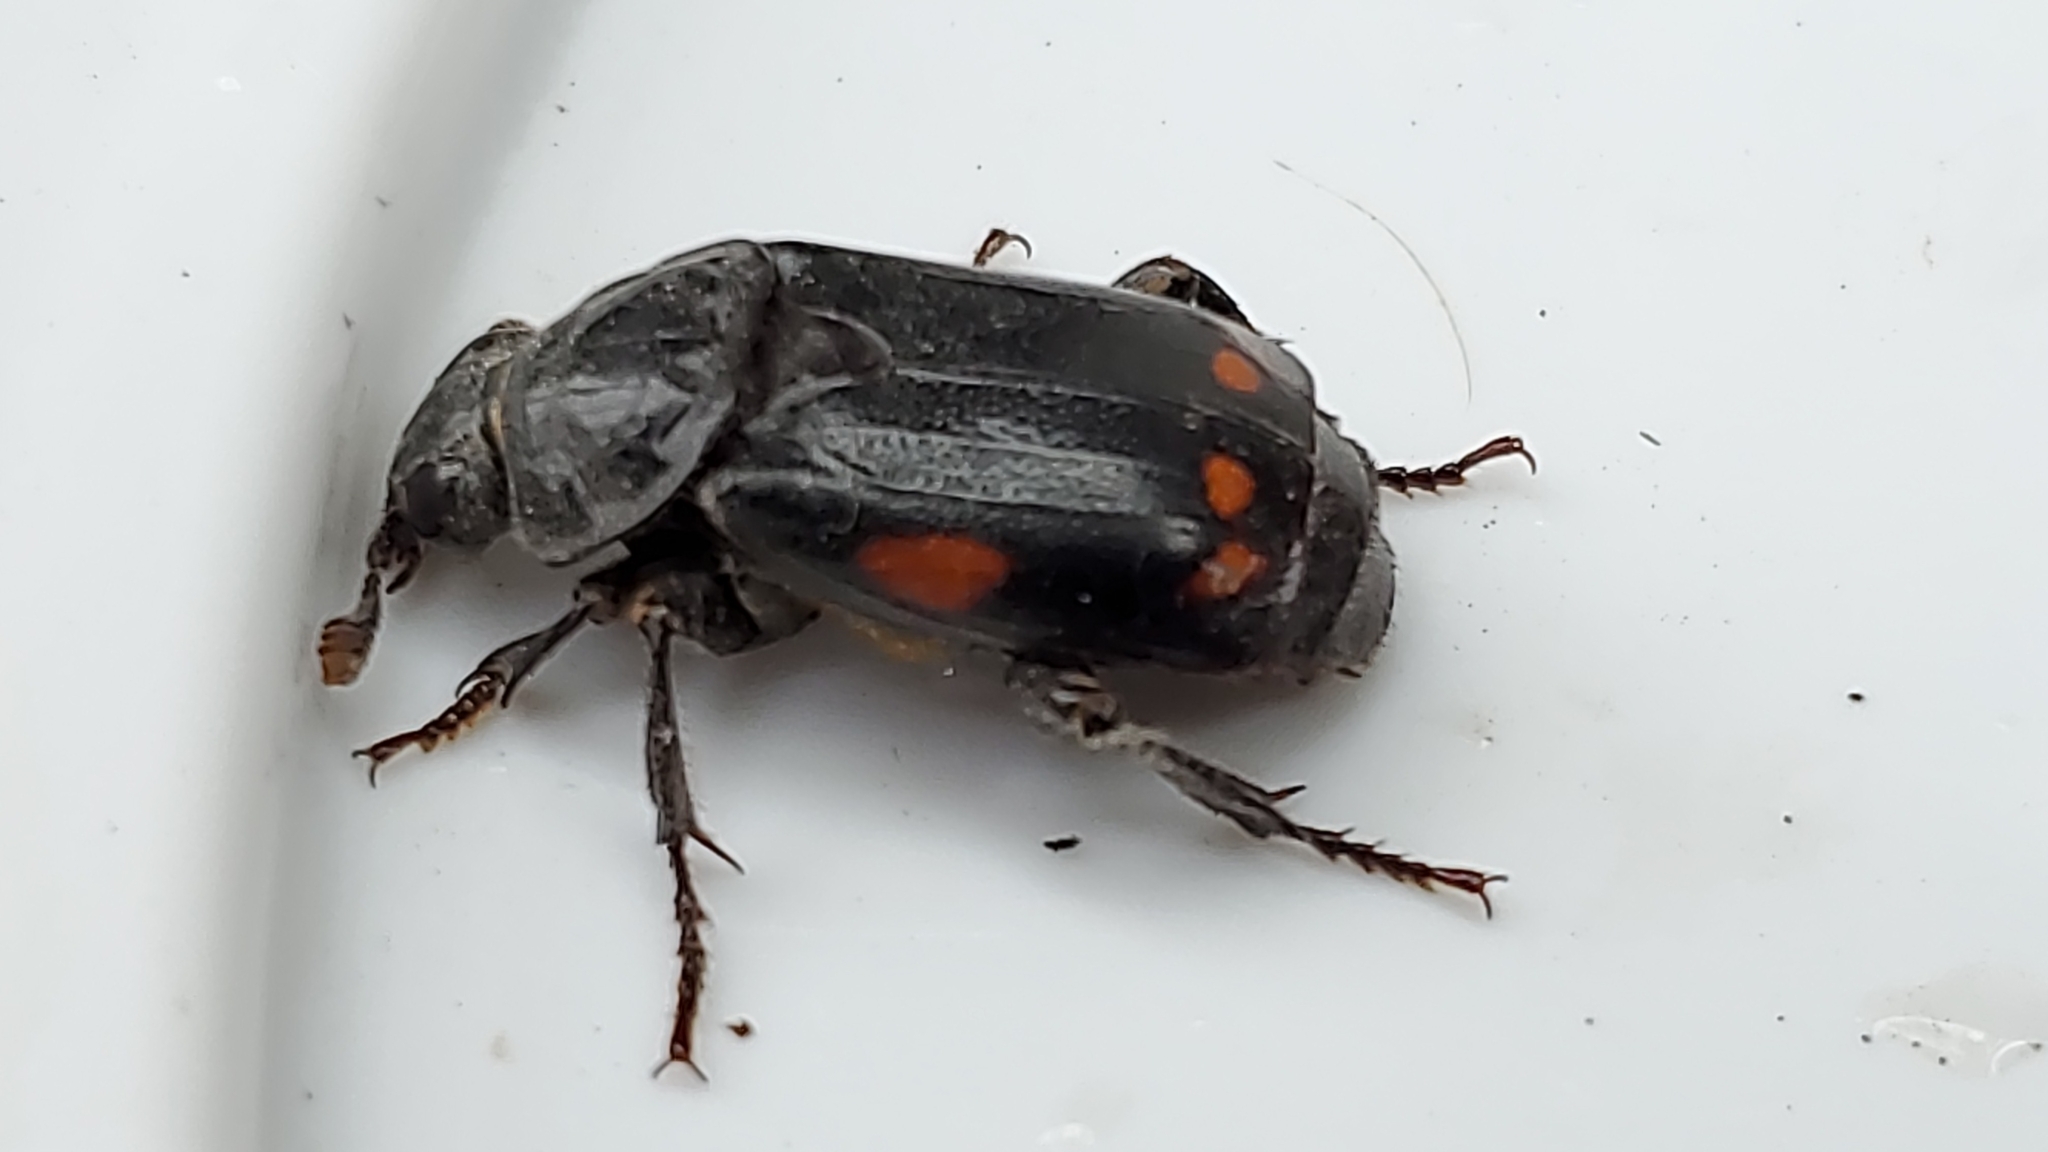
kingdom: Animalia
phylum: Arthropoda
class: Insecta
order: Coleoptera
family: Staphylinidae
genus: Nicrophorus
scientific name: Nicrophorus pustulatus
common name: Pustulated carrion beetle
